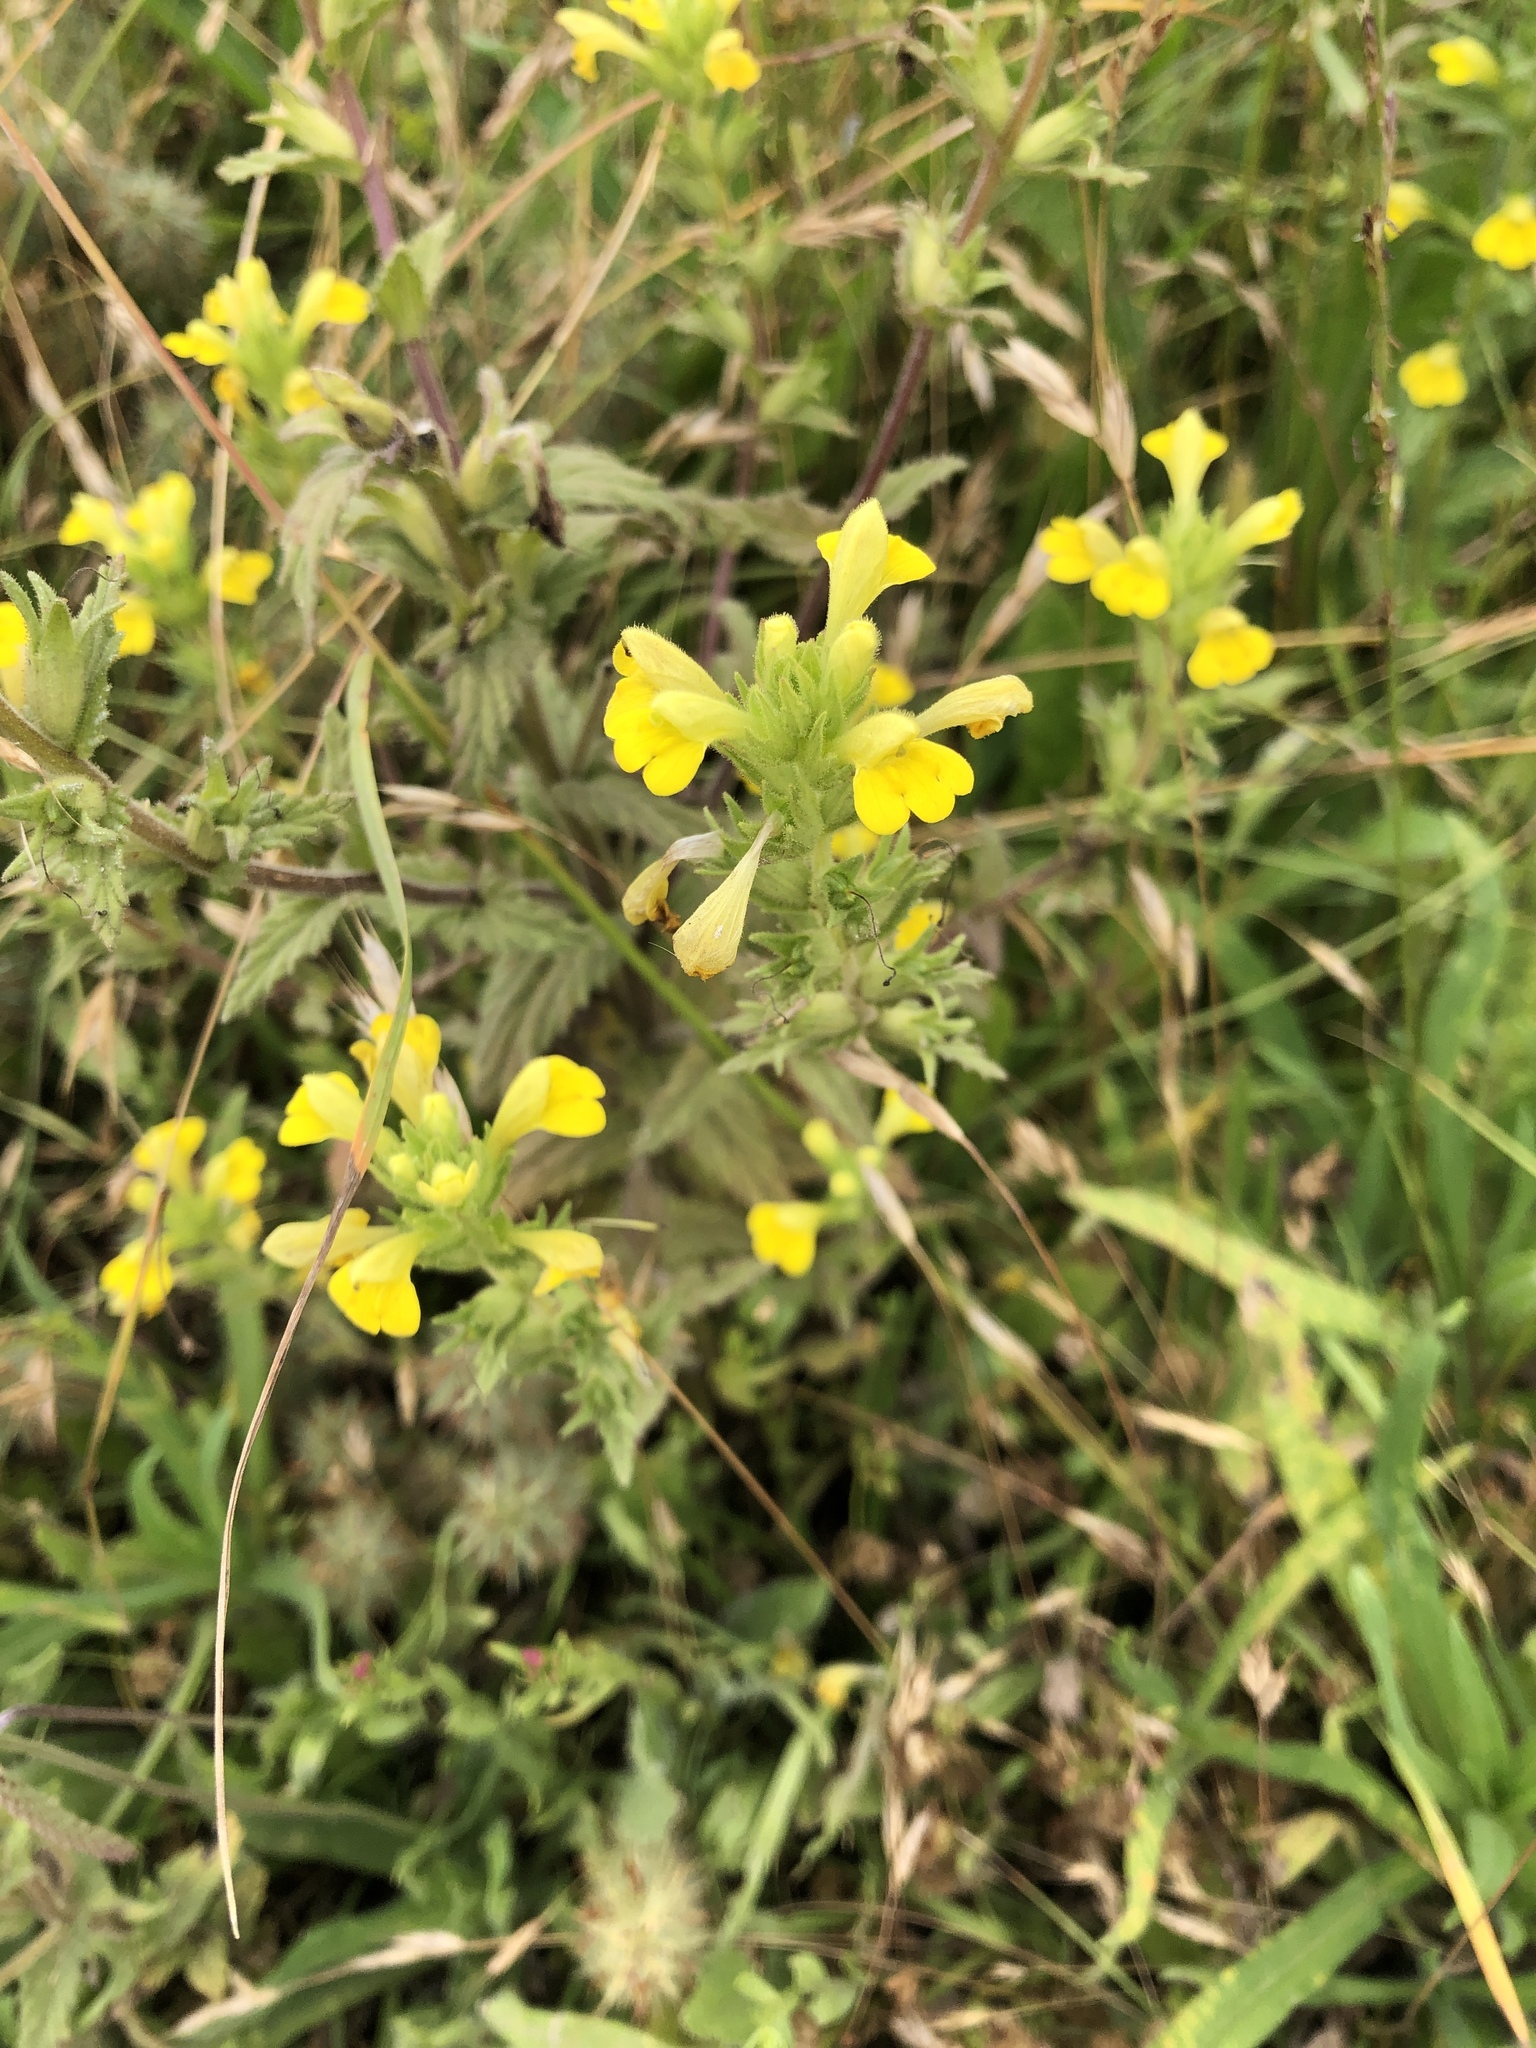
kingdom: Plantae
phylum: Tracheophyta
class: Magnoliopsida
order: Lamiales
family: Orobanchaceae
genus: Bellardia
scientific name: Bellardia viscosa
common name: Sticky parentucellia
